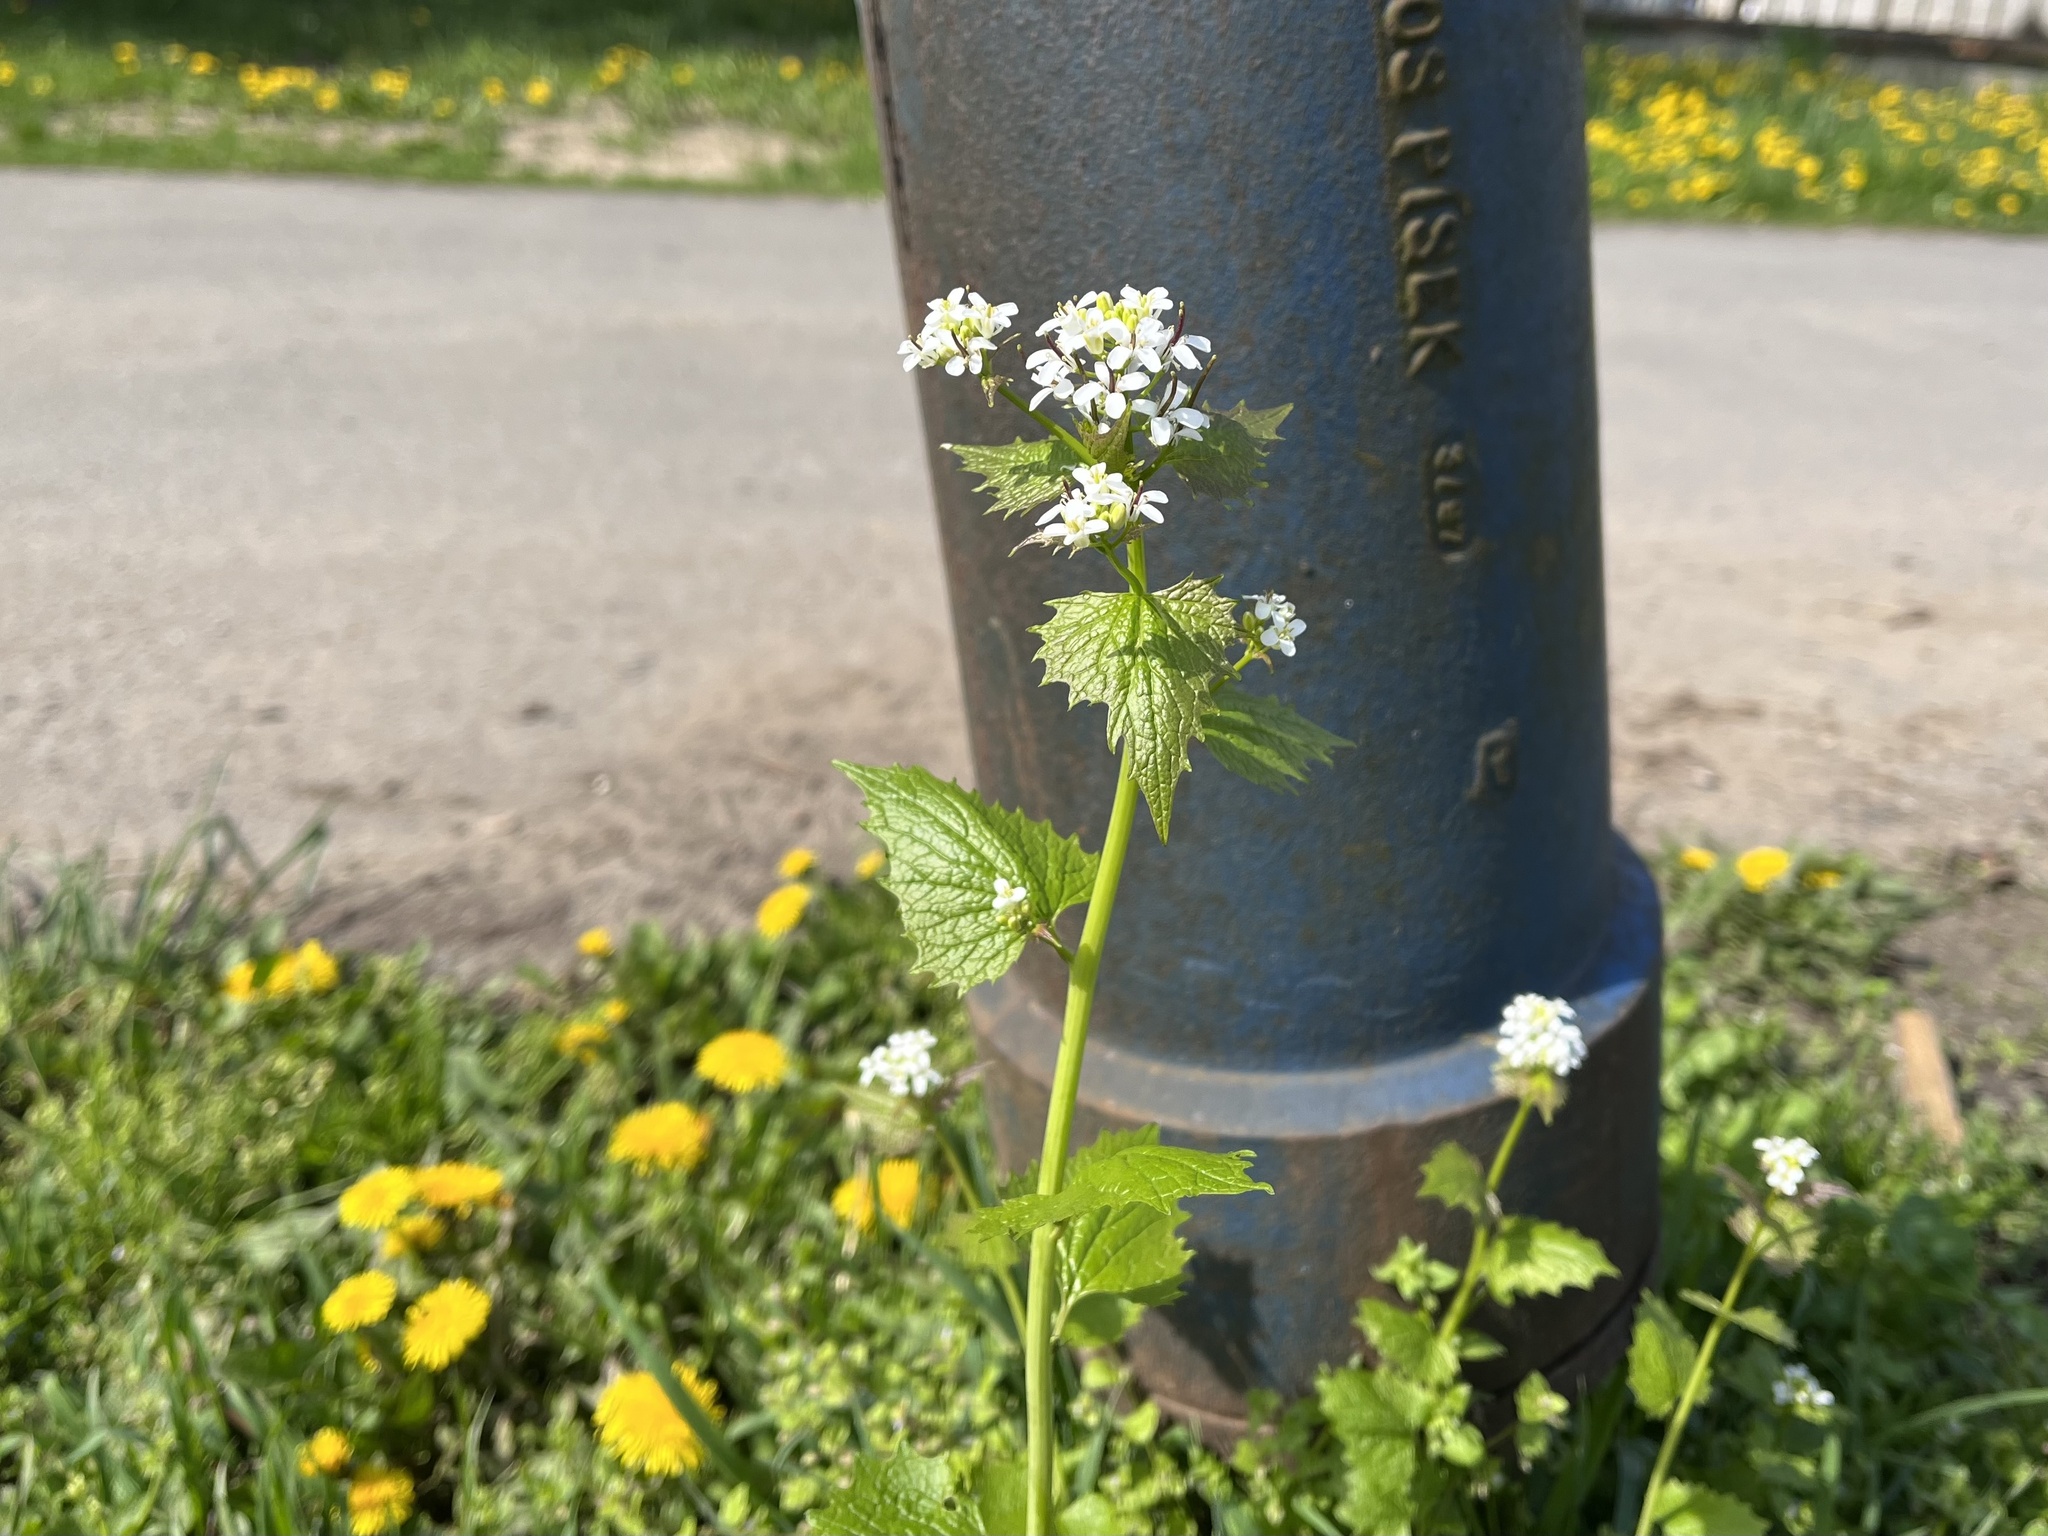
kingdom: Plantae
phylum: Tracheophyta
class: Magnoliopsida
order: Brassicales
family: Brassicaceae
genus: Alliaria
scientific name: Alliaria petiolata
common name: Garlic mustard
